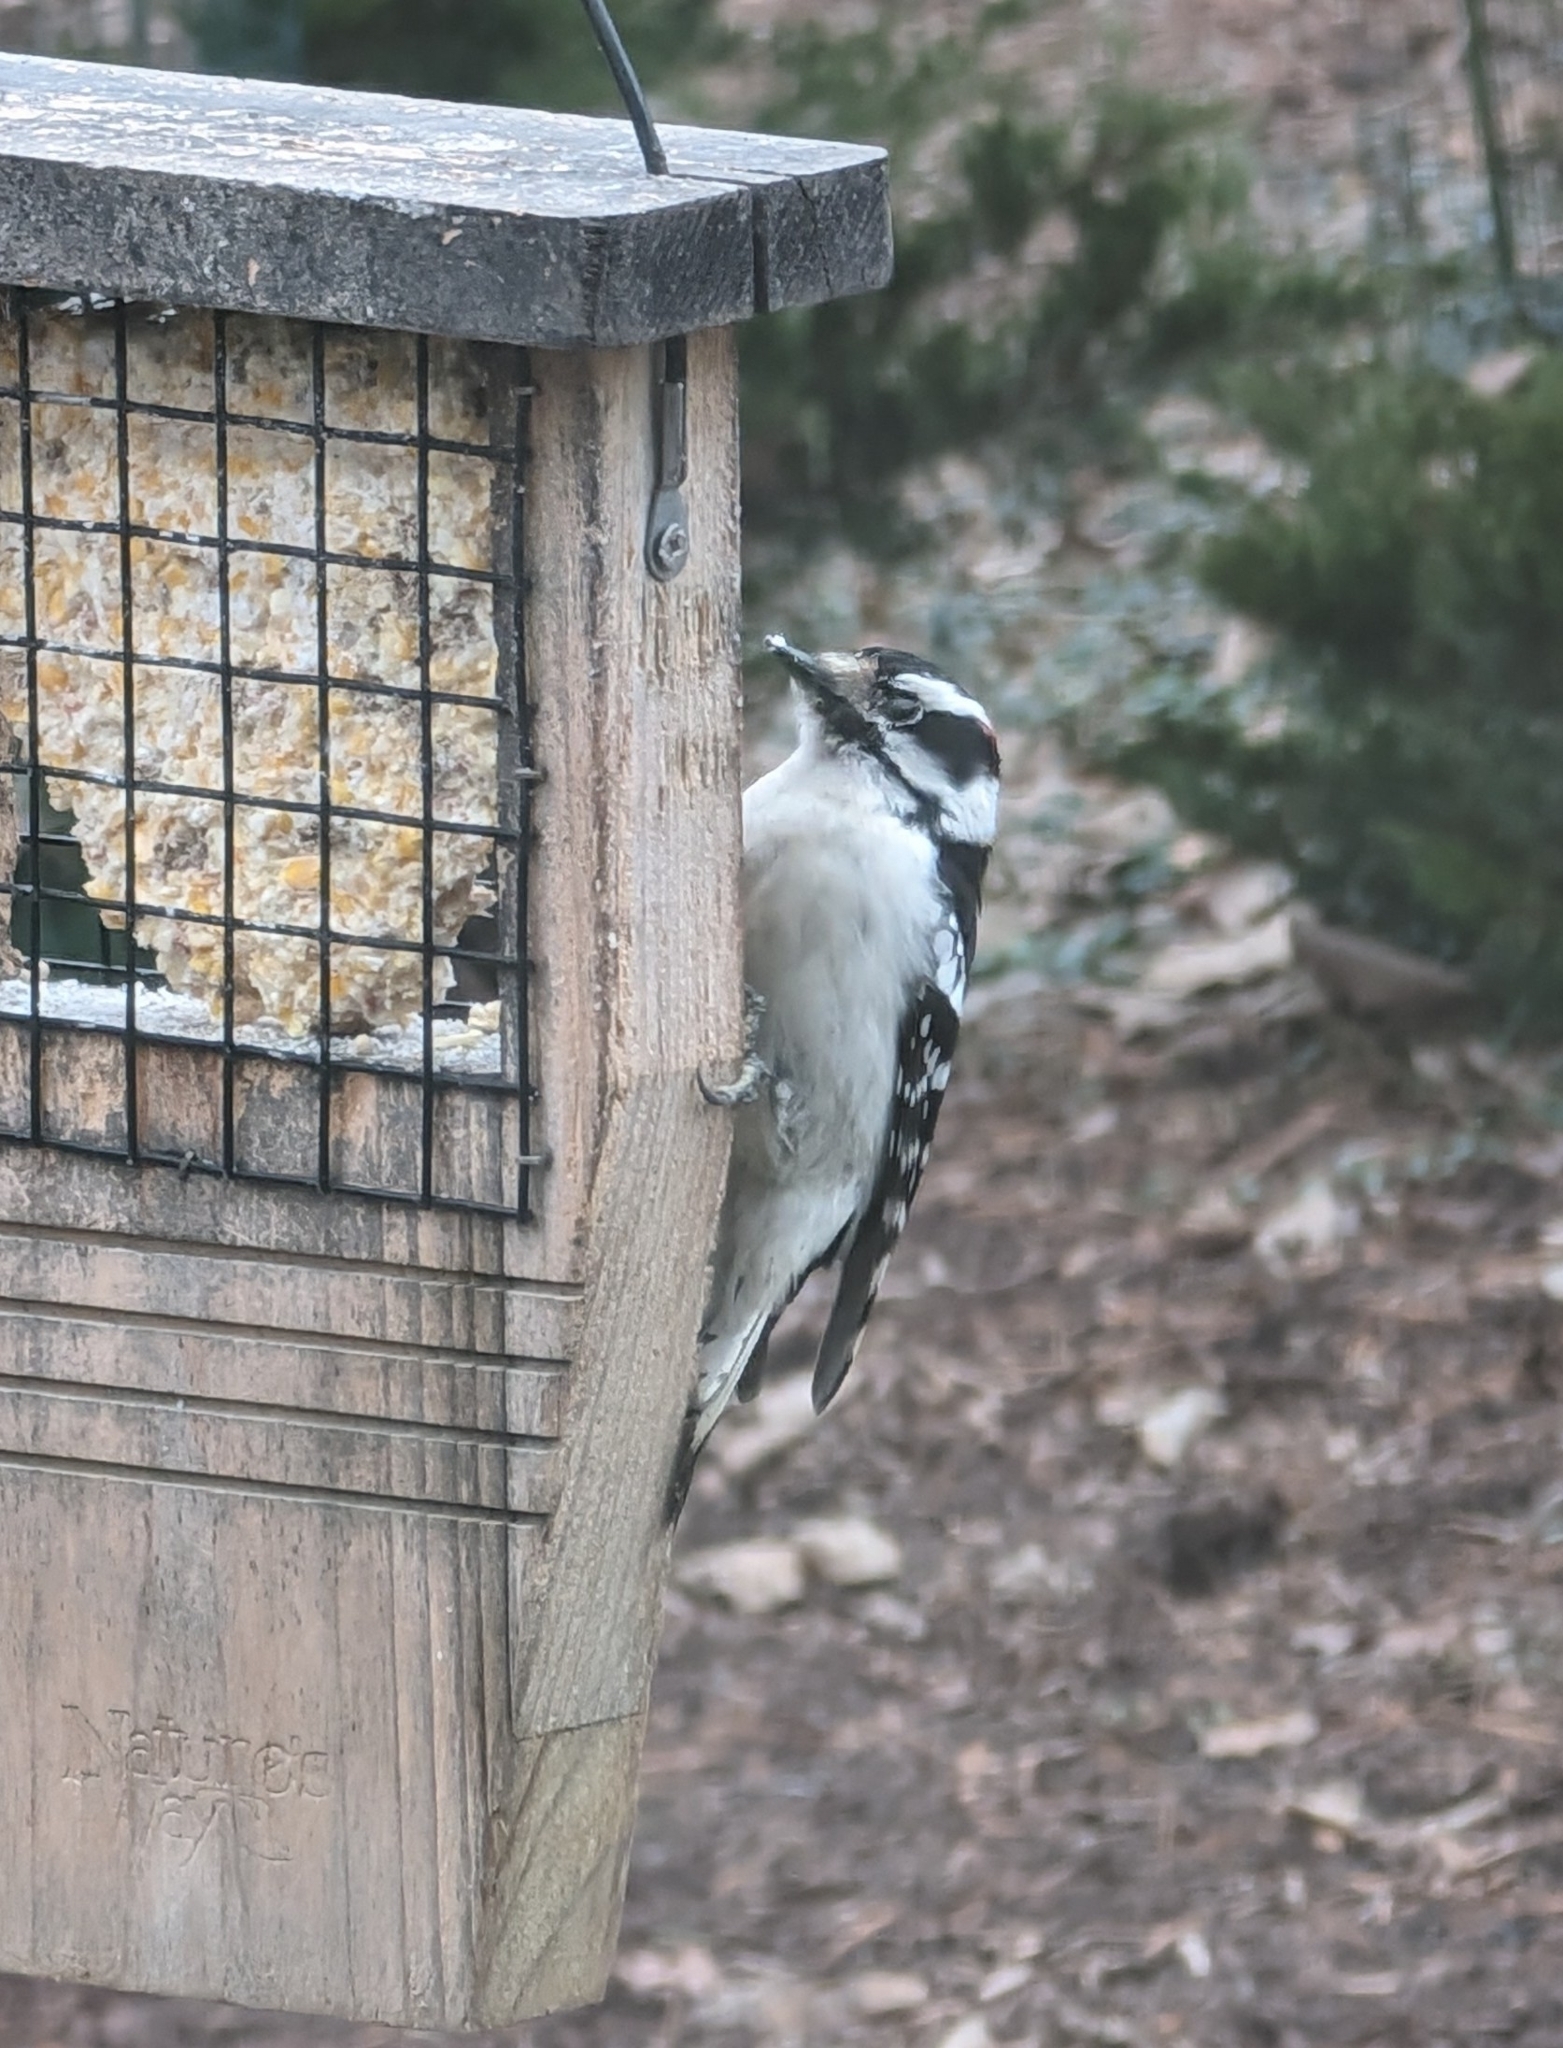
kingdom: Animalia
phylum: Chordata
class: Aves
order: Piciformes
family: Picidae
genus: Dryobates
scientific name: Dryobates pubescens
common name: Downy woodpecker
